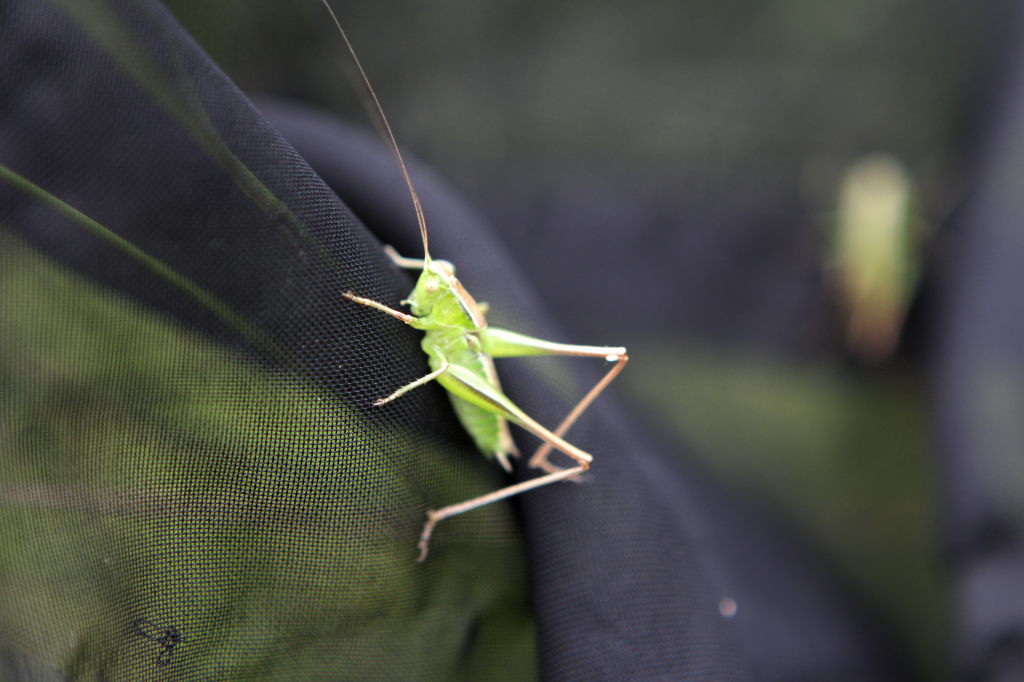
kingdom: Animalia
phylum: Arthropoda
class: Insecta
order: Orthoptera
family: Tettigoniidae
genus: Bicolorana
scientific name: Bicolorana bicolor
